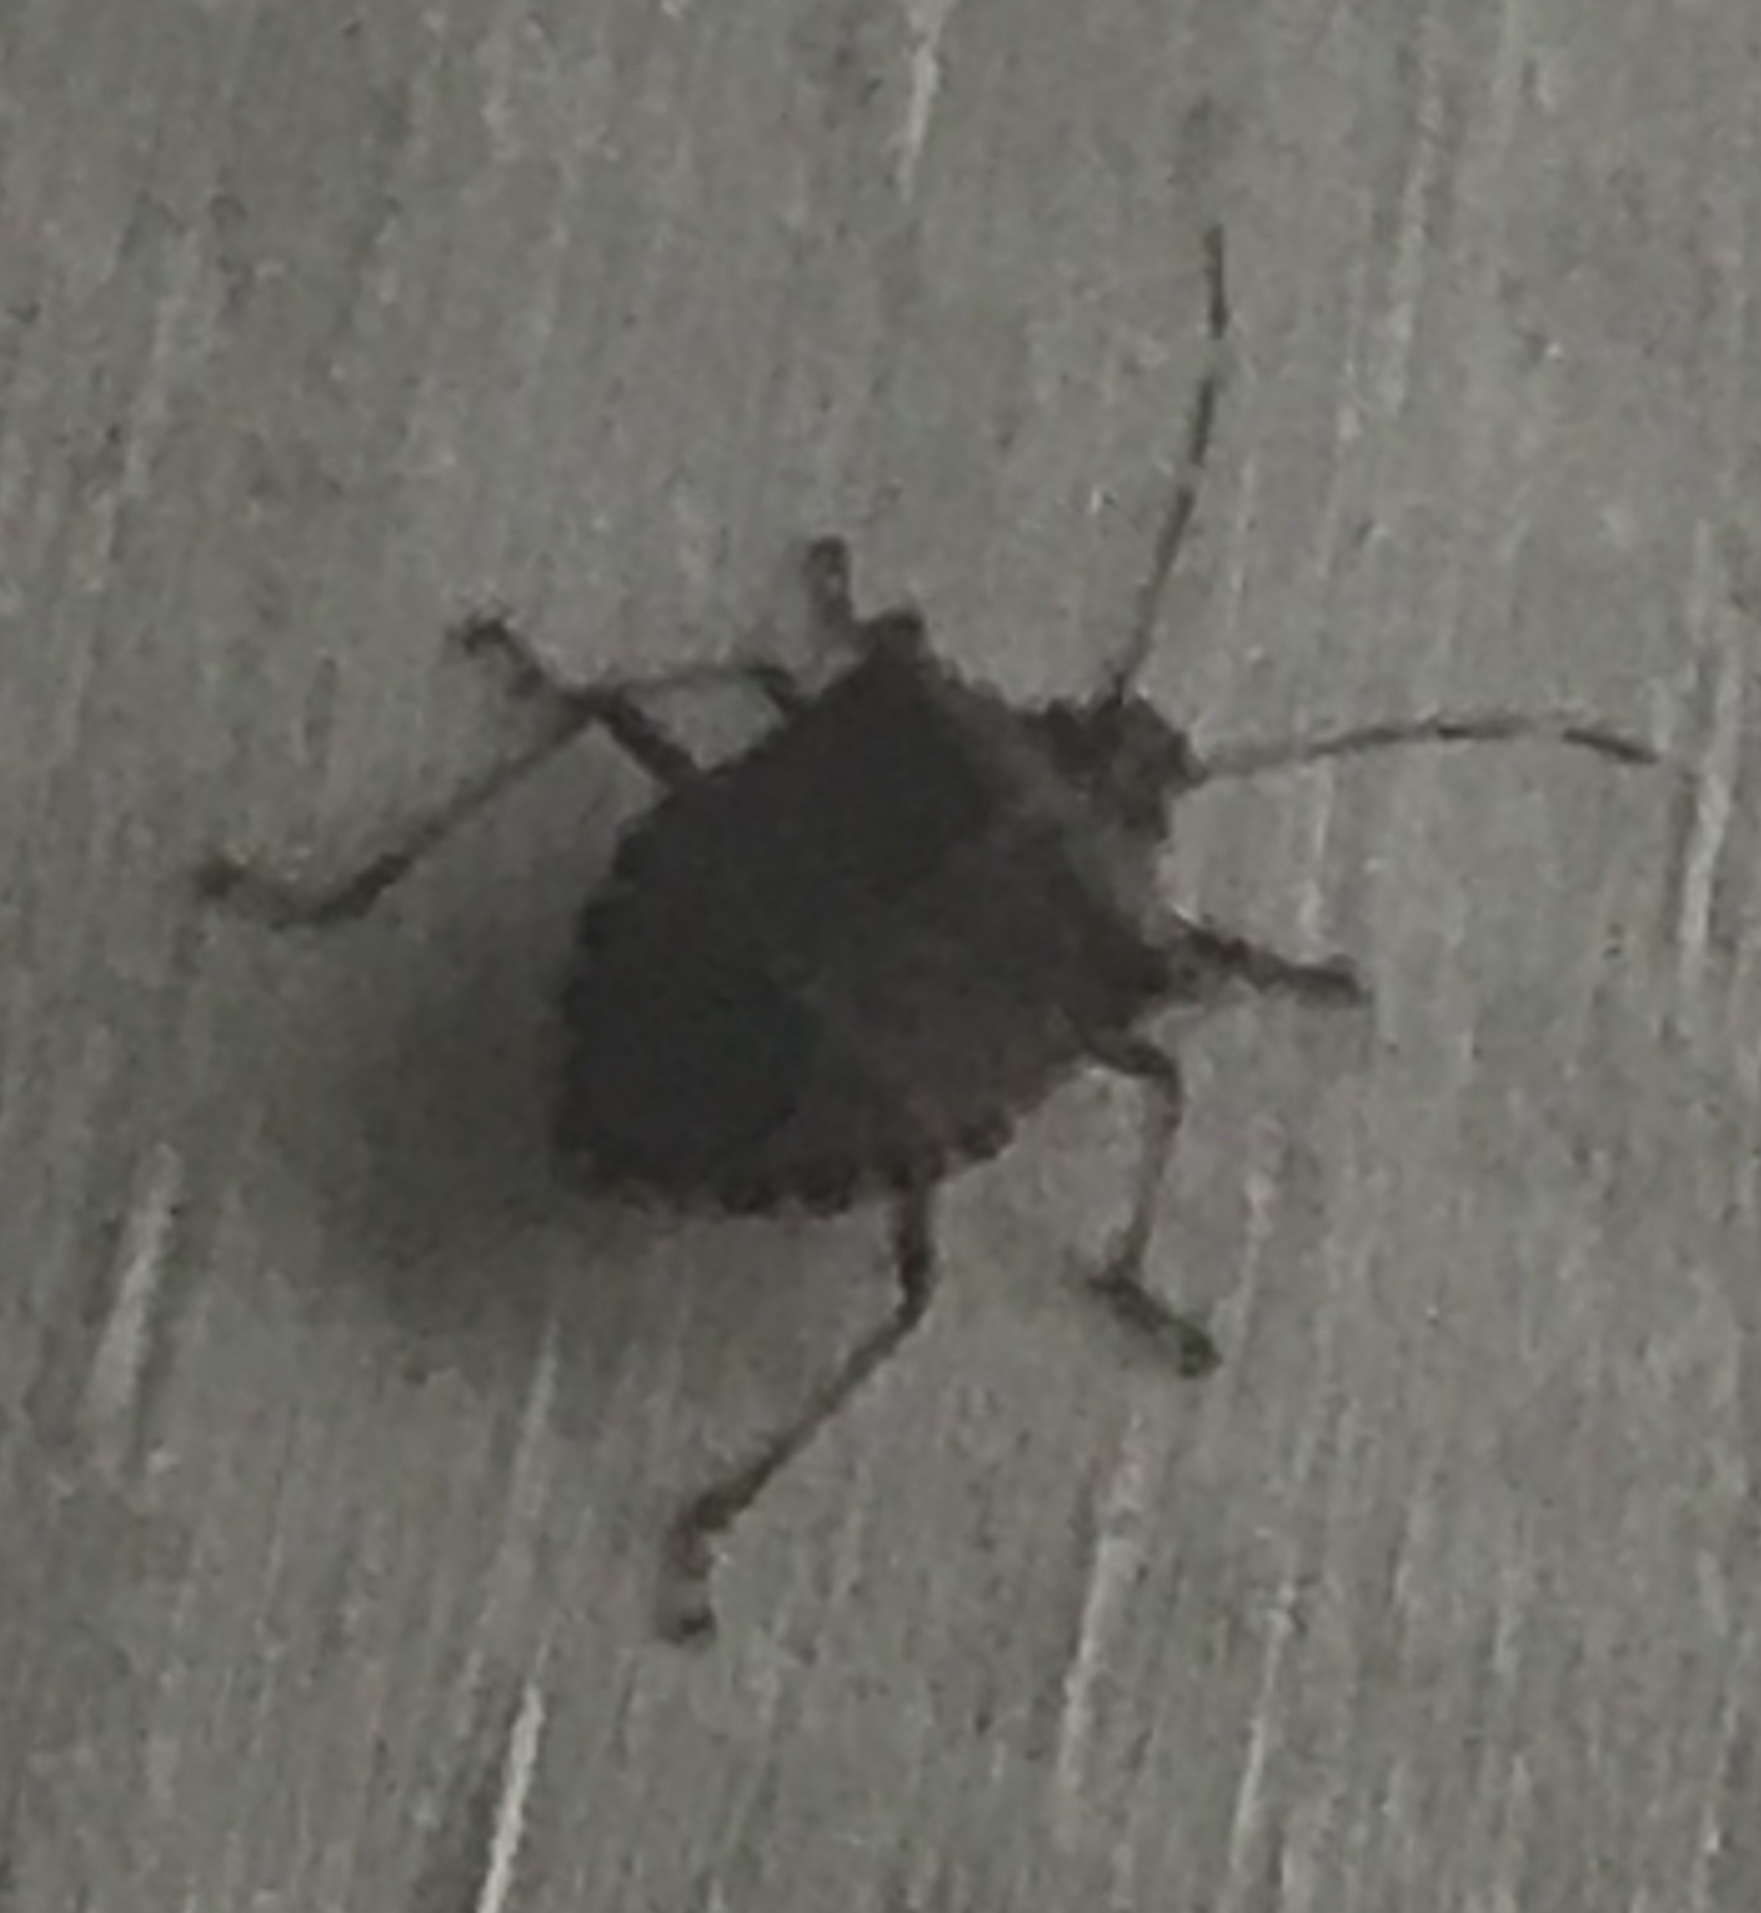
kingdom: Animalia
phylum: Arthropoda
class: Insecta
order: Hemiptera
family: Pentatomidae
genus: Halyomorpha
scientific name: Halyomorpha halys
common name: Brown marmorated stink bug
